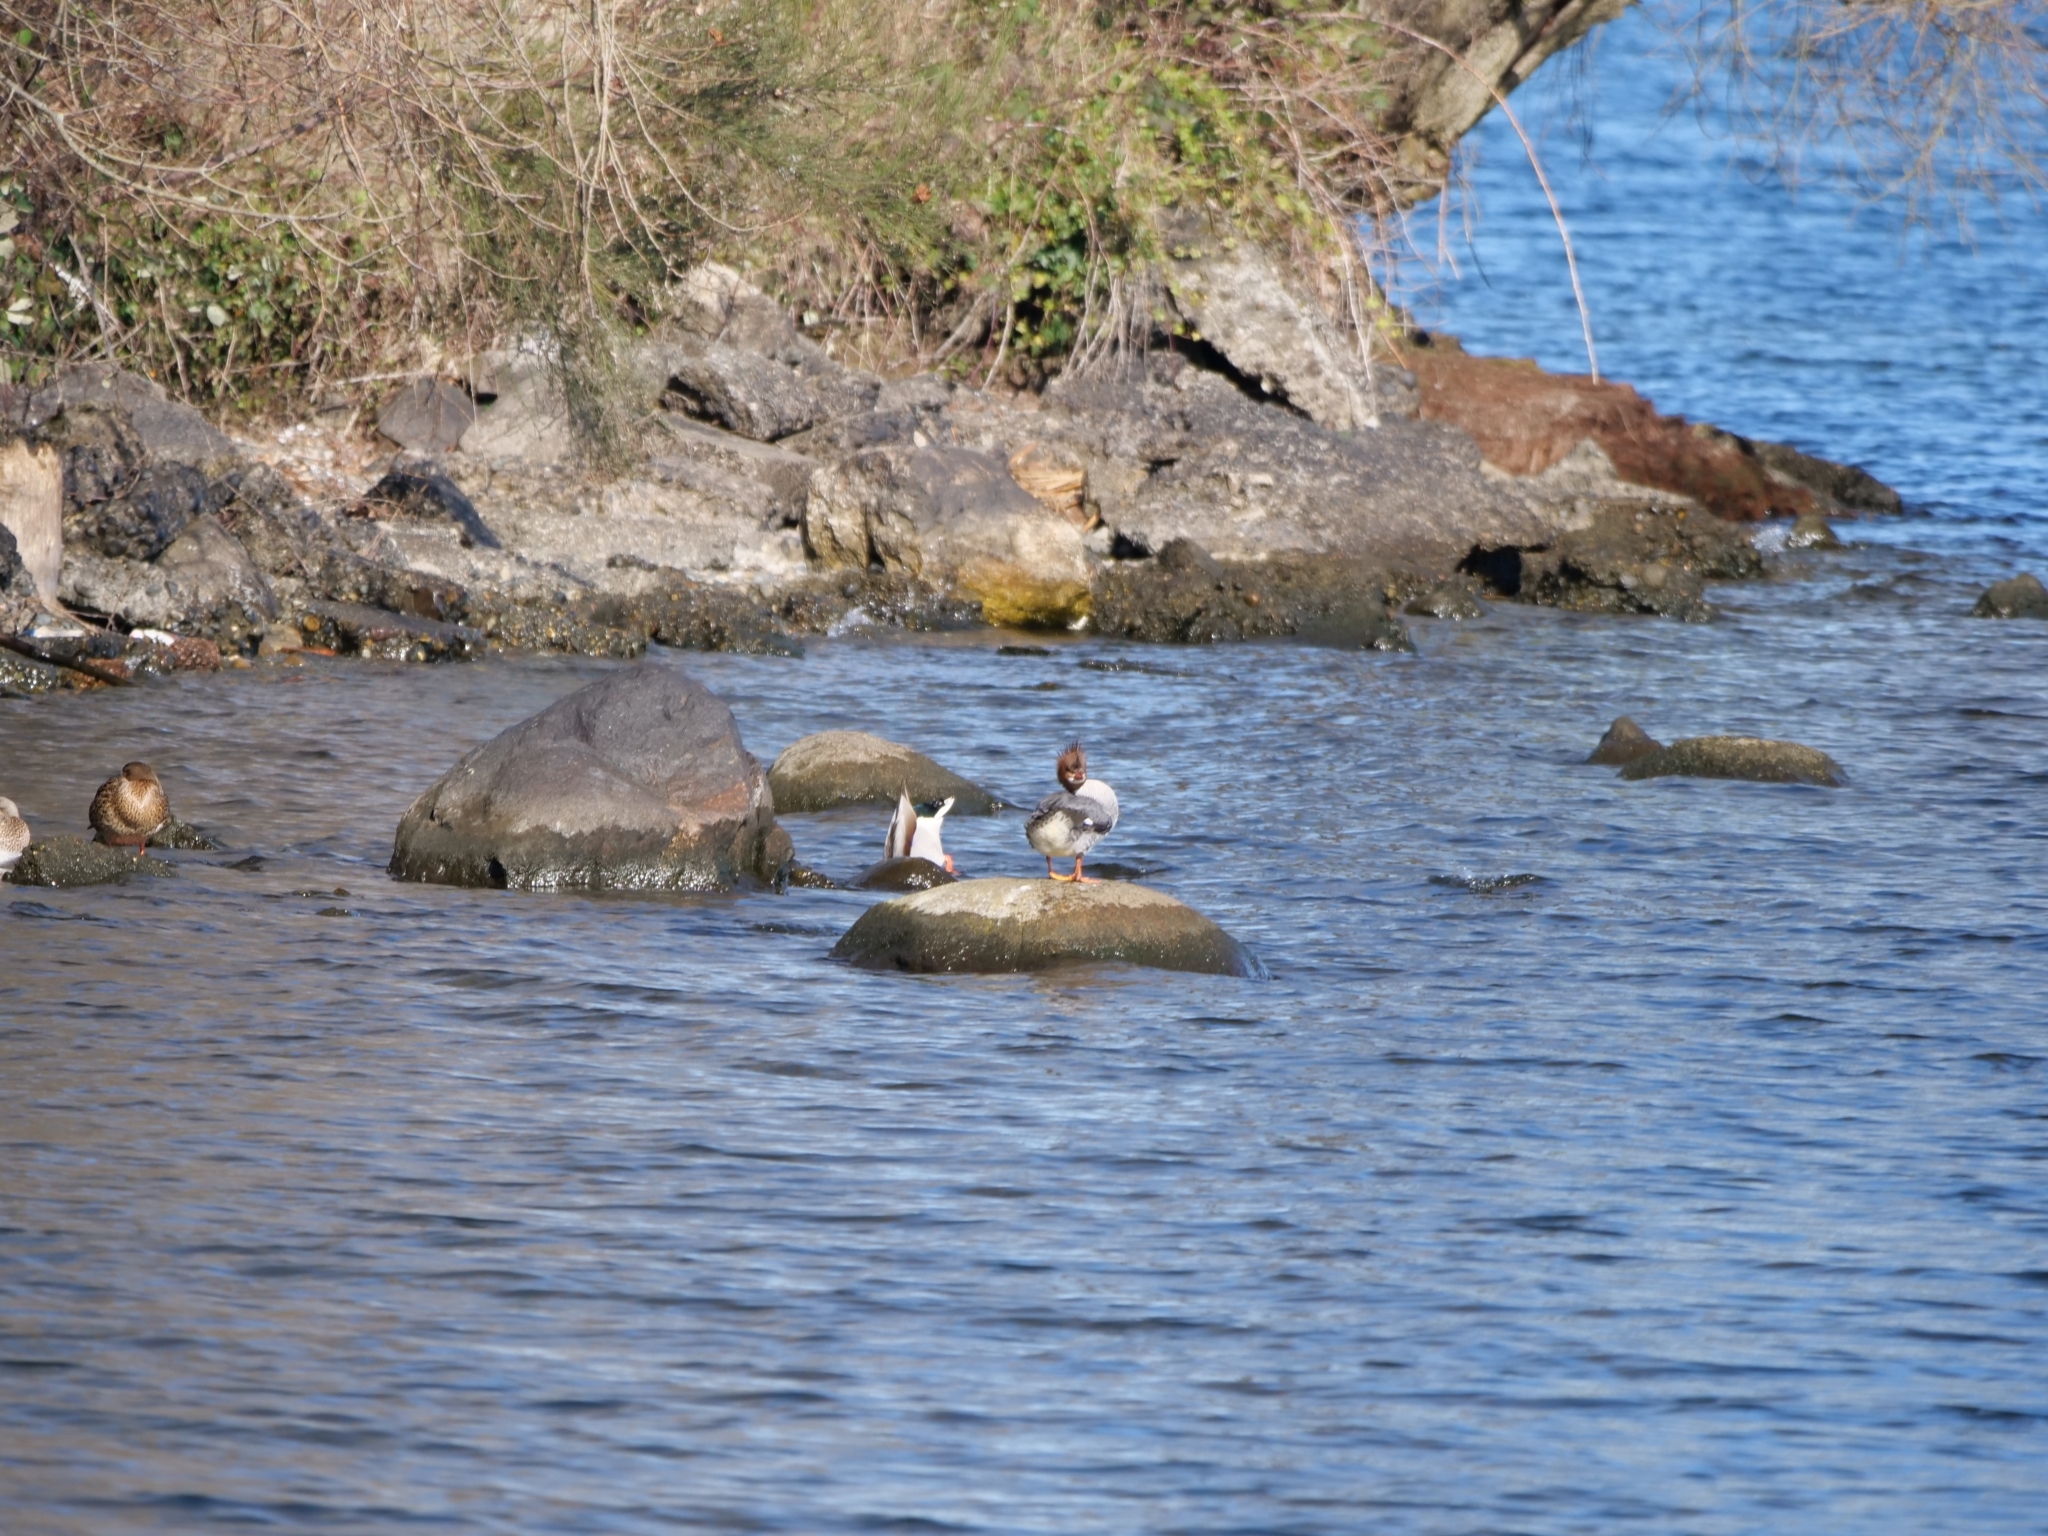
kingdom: Animalia
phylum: Chordata
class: Aves
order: Anseriformes
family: Anatidae
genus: Mergus
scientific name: Mergus merganser
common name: Common merganser
